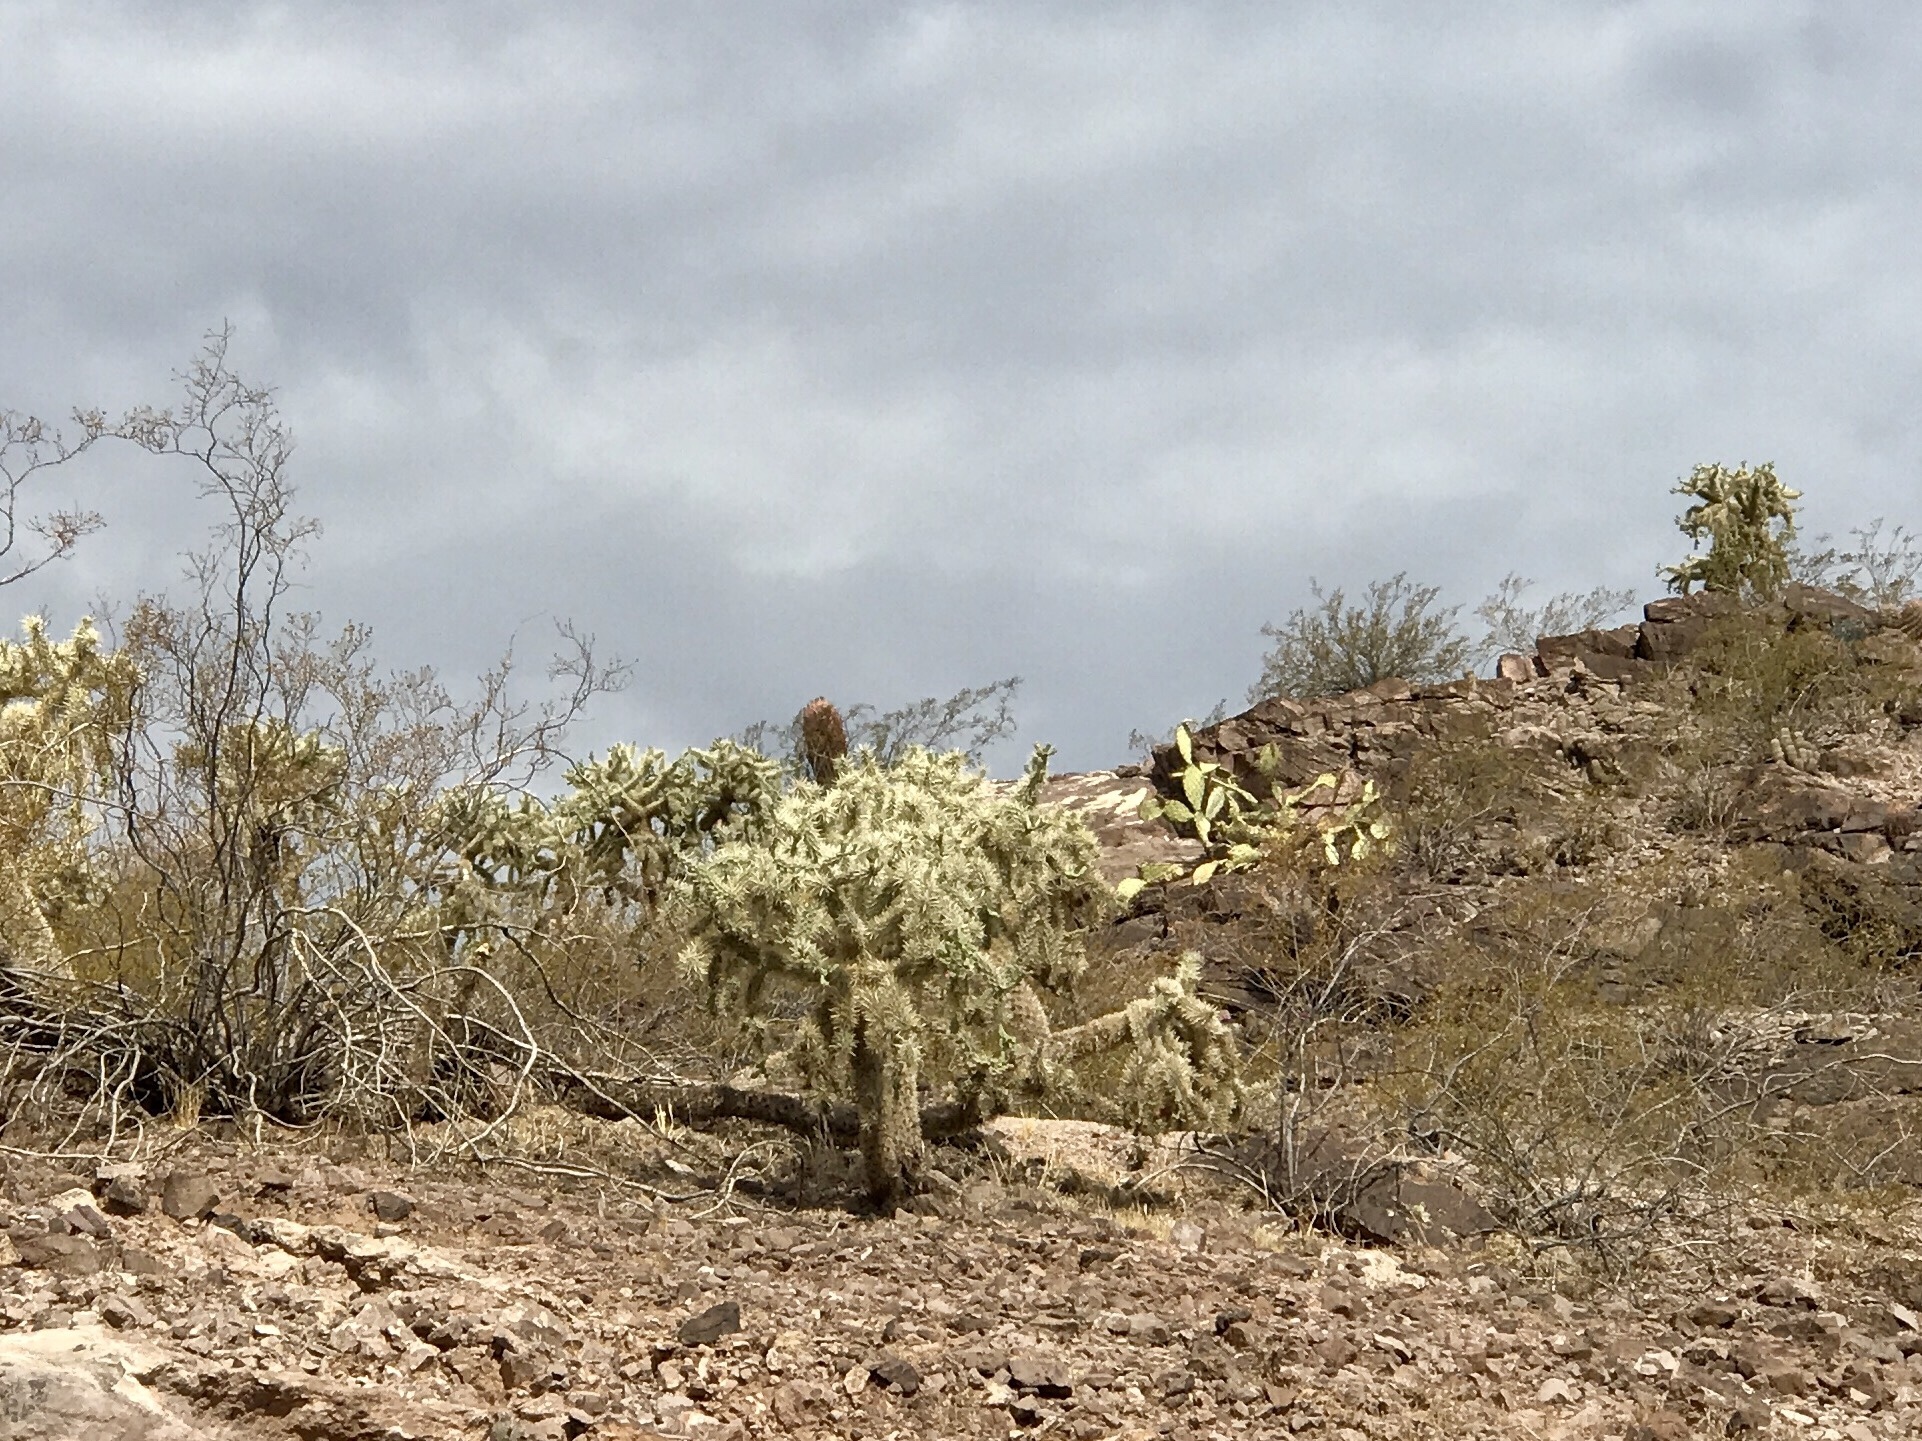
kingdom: Plantae
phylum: Tracheophyta
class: Magnoliopsida
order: Caryophyllales
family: Cactaceae
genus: Cylindropuntia
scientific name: Cylindropuntia fulgida
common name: Jumping cholla
